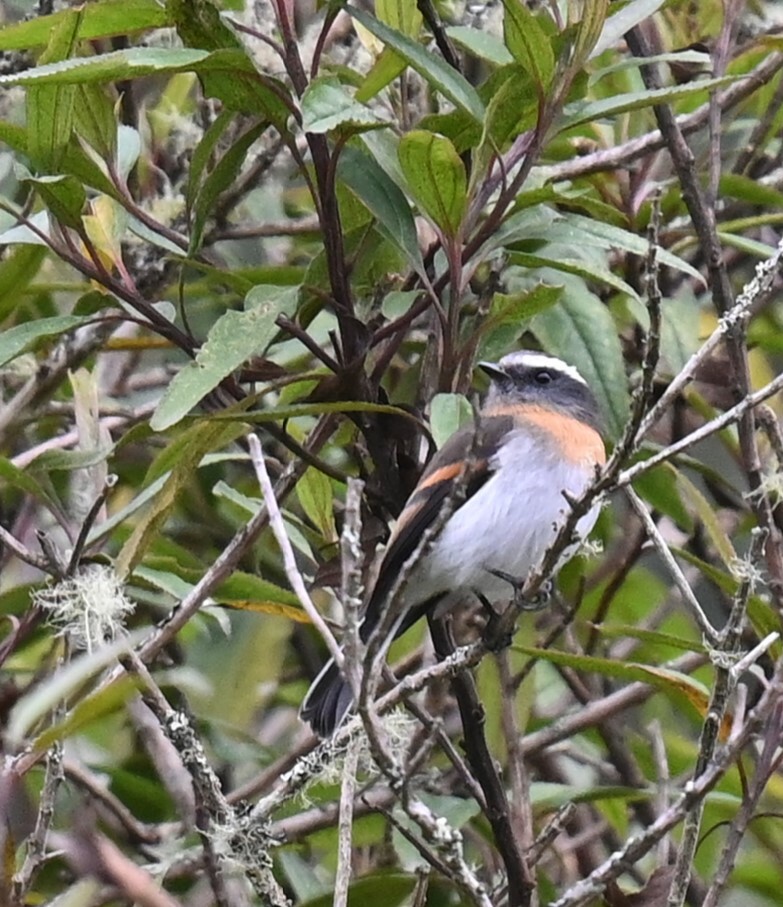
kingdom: Animalia
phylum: Chordata
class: Aves
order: Passeriformes
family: Tyrannidae
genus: Ochthoeca
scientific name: Ochthoeca rufipectoralis
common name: Rufous-breasted chat-tyrant
